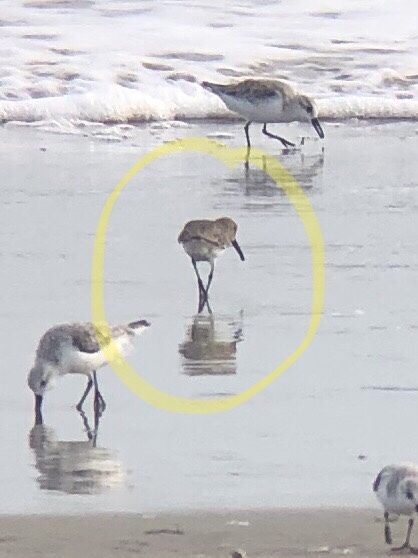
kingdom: Animalia
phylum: Chordata
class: Aves
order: Charadriiformes
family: Scolopacidae
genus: Calidris
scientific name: Calidris alpina
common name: Dunlin
